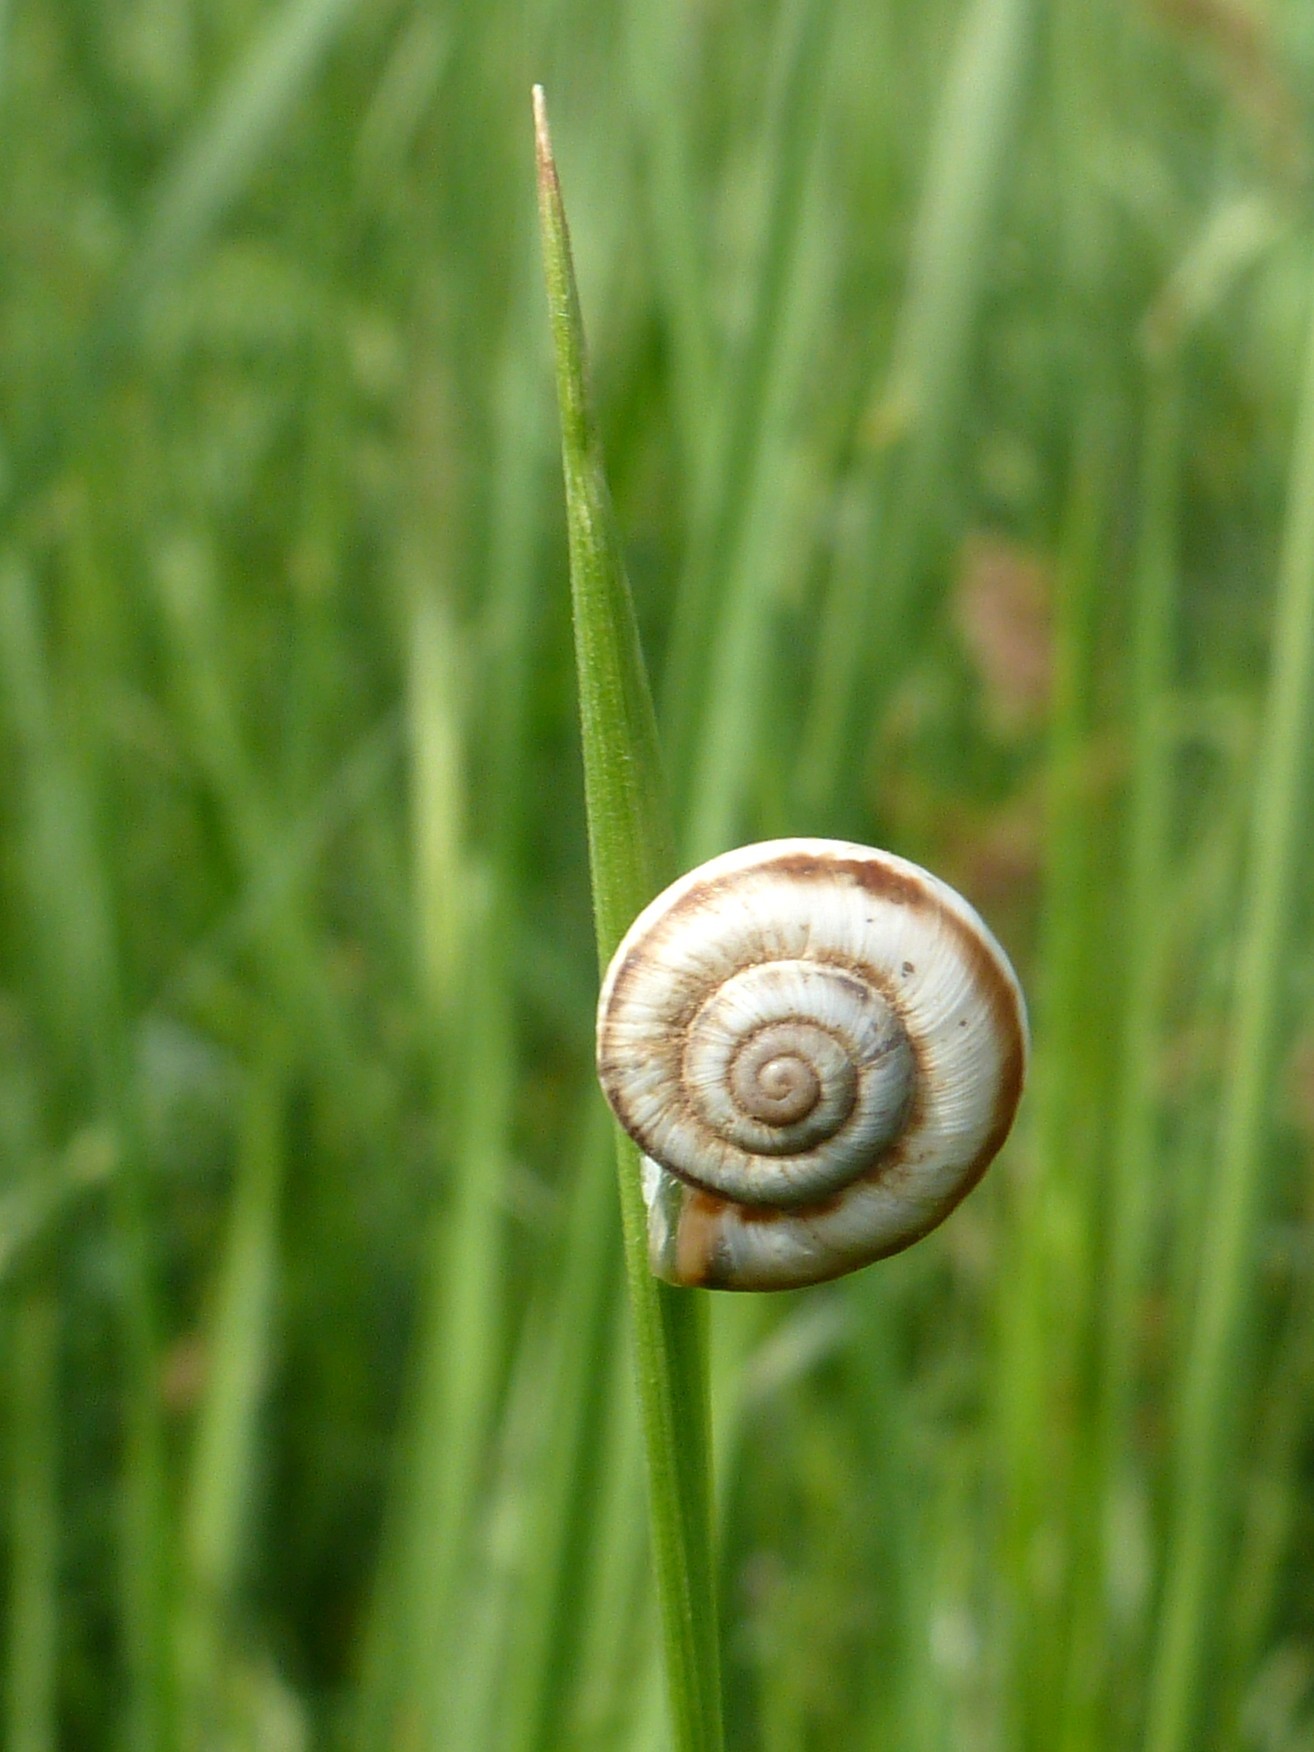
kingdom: Animalia
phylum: Mollusca
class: Gastropoda
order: Stylommatophora
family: Geomitridae
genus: Xeropicta
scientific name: Xeropicta derbentina
